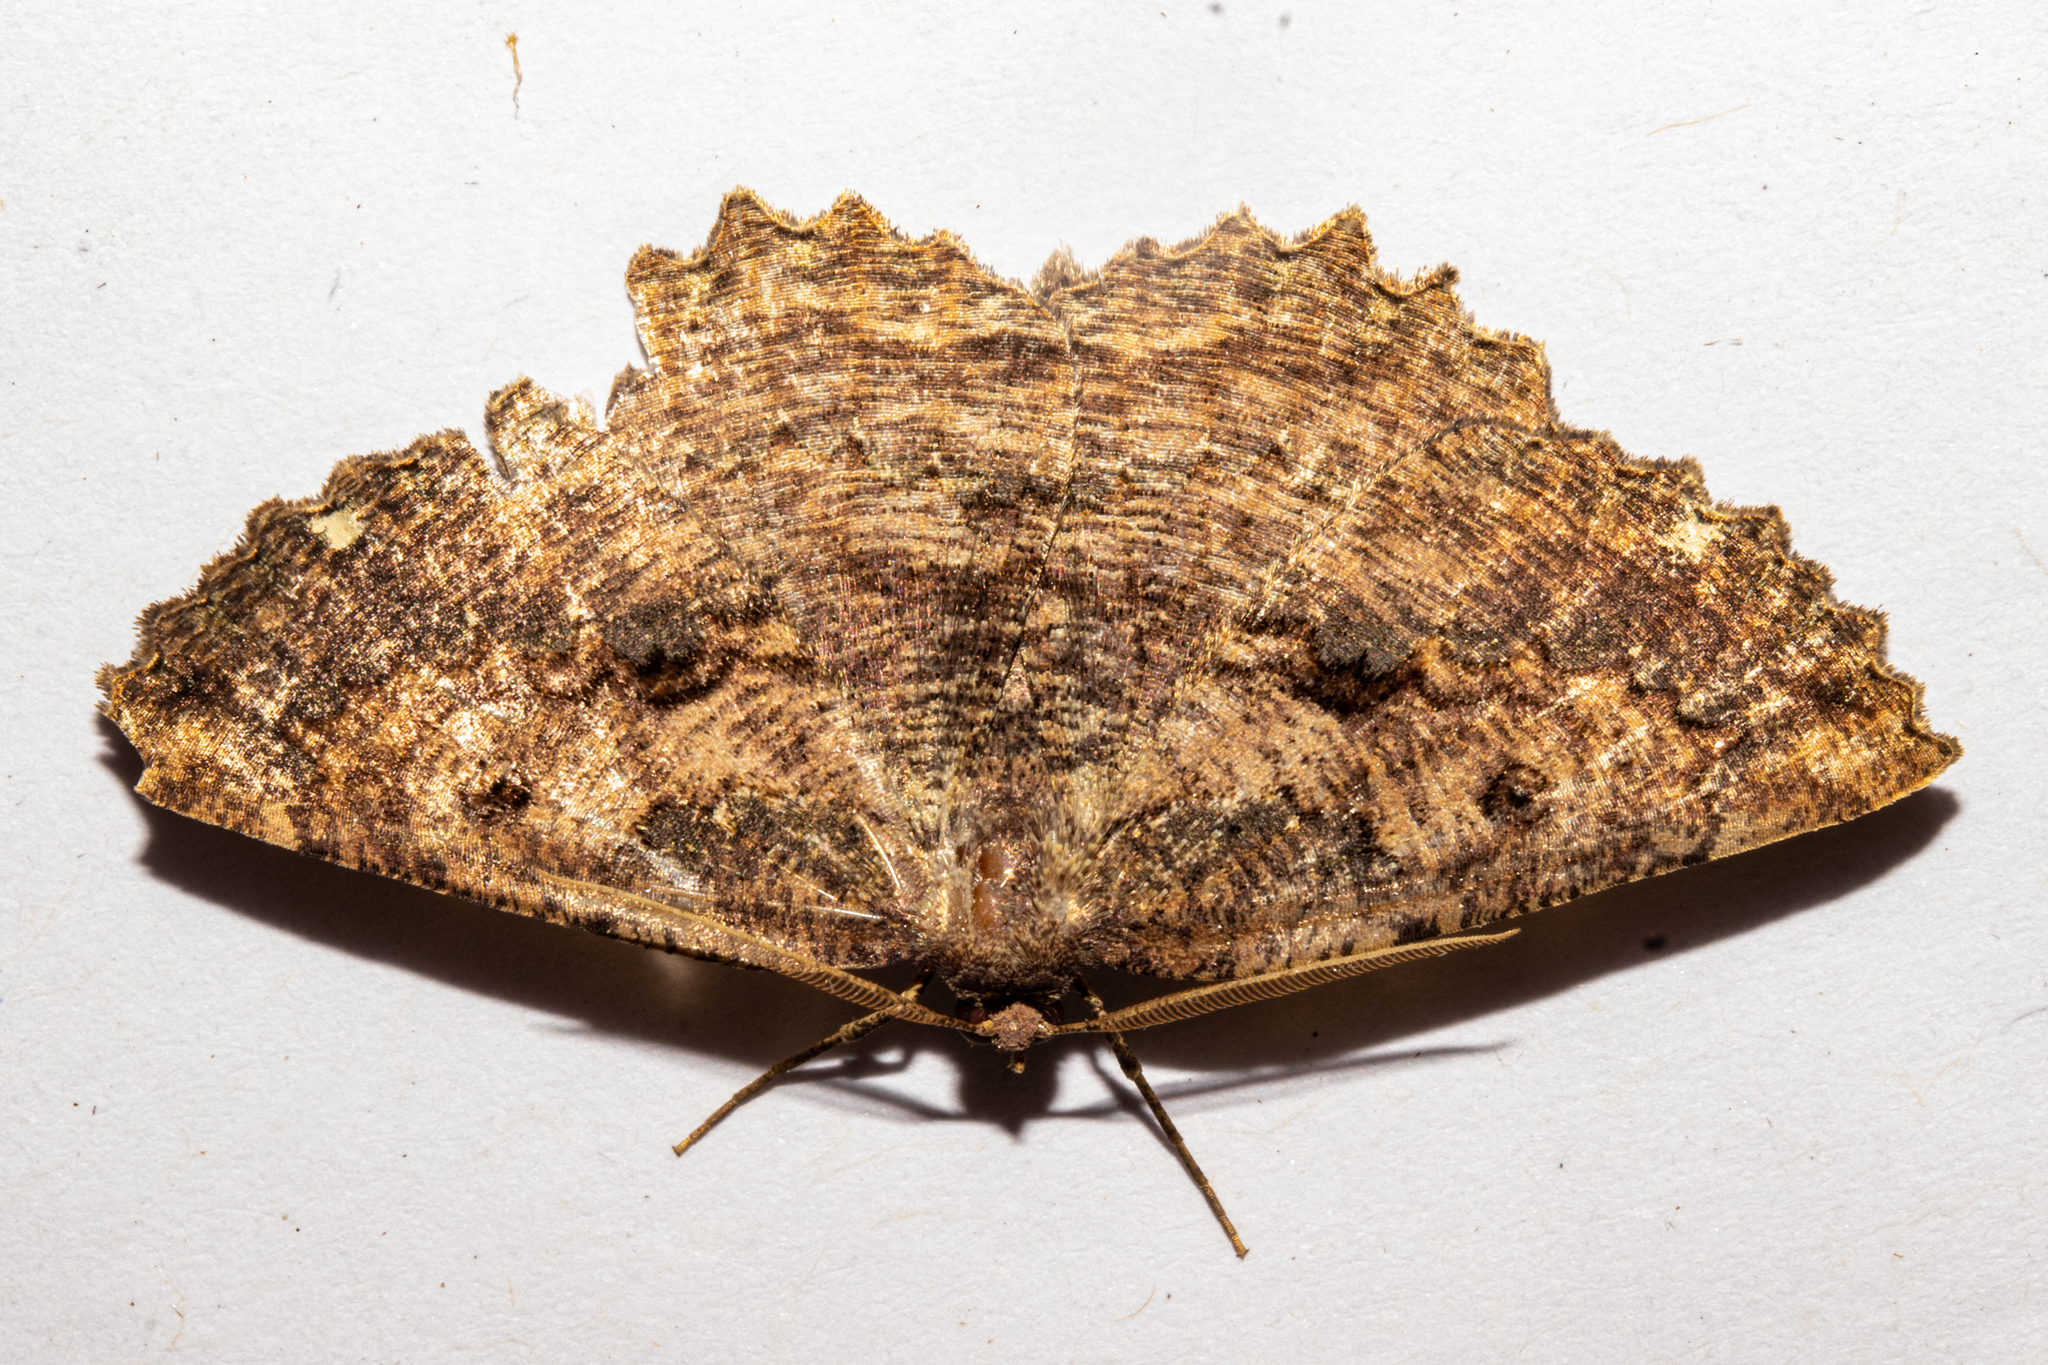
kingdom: Animalia
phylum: Arthropoda
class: Insecta
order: Lepidoptera
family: Geometridae
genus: Gellonia
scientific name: Gellonia pannularia
